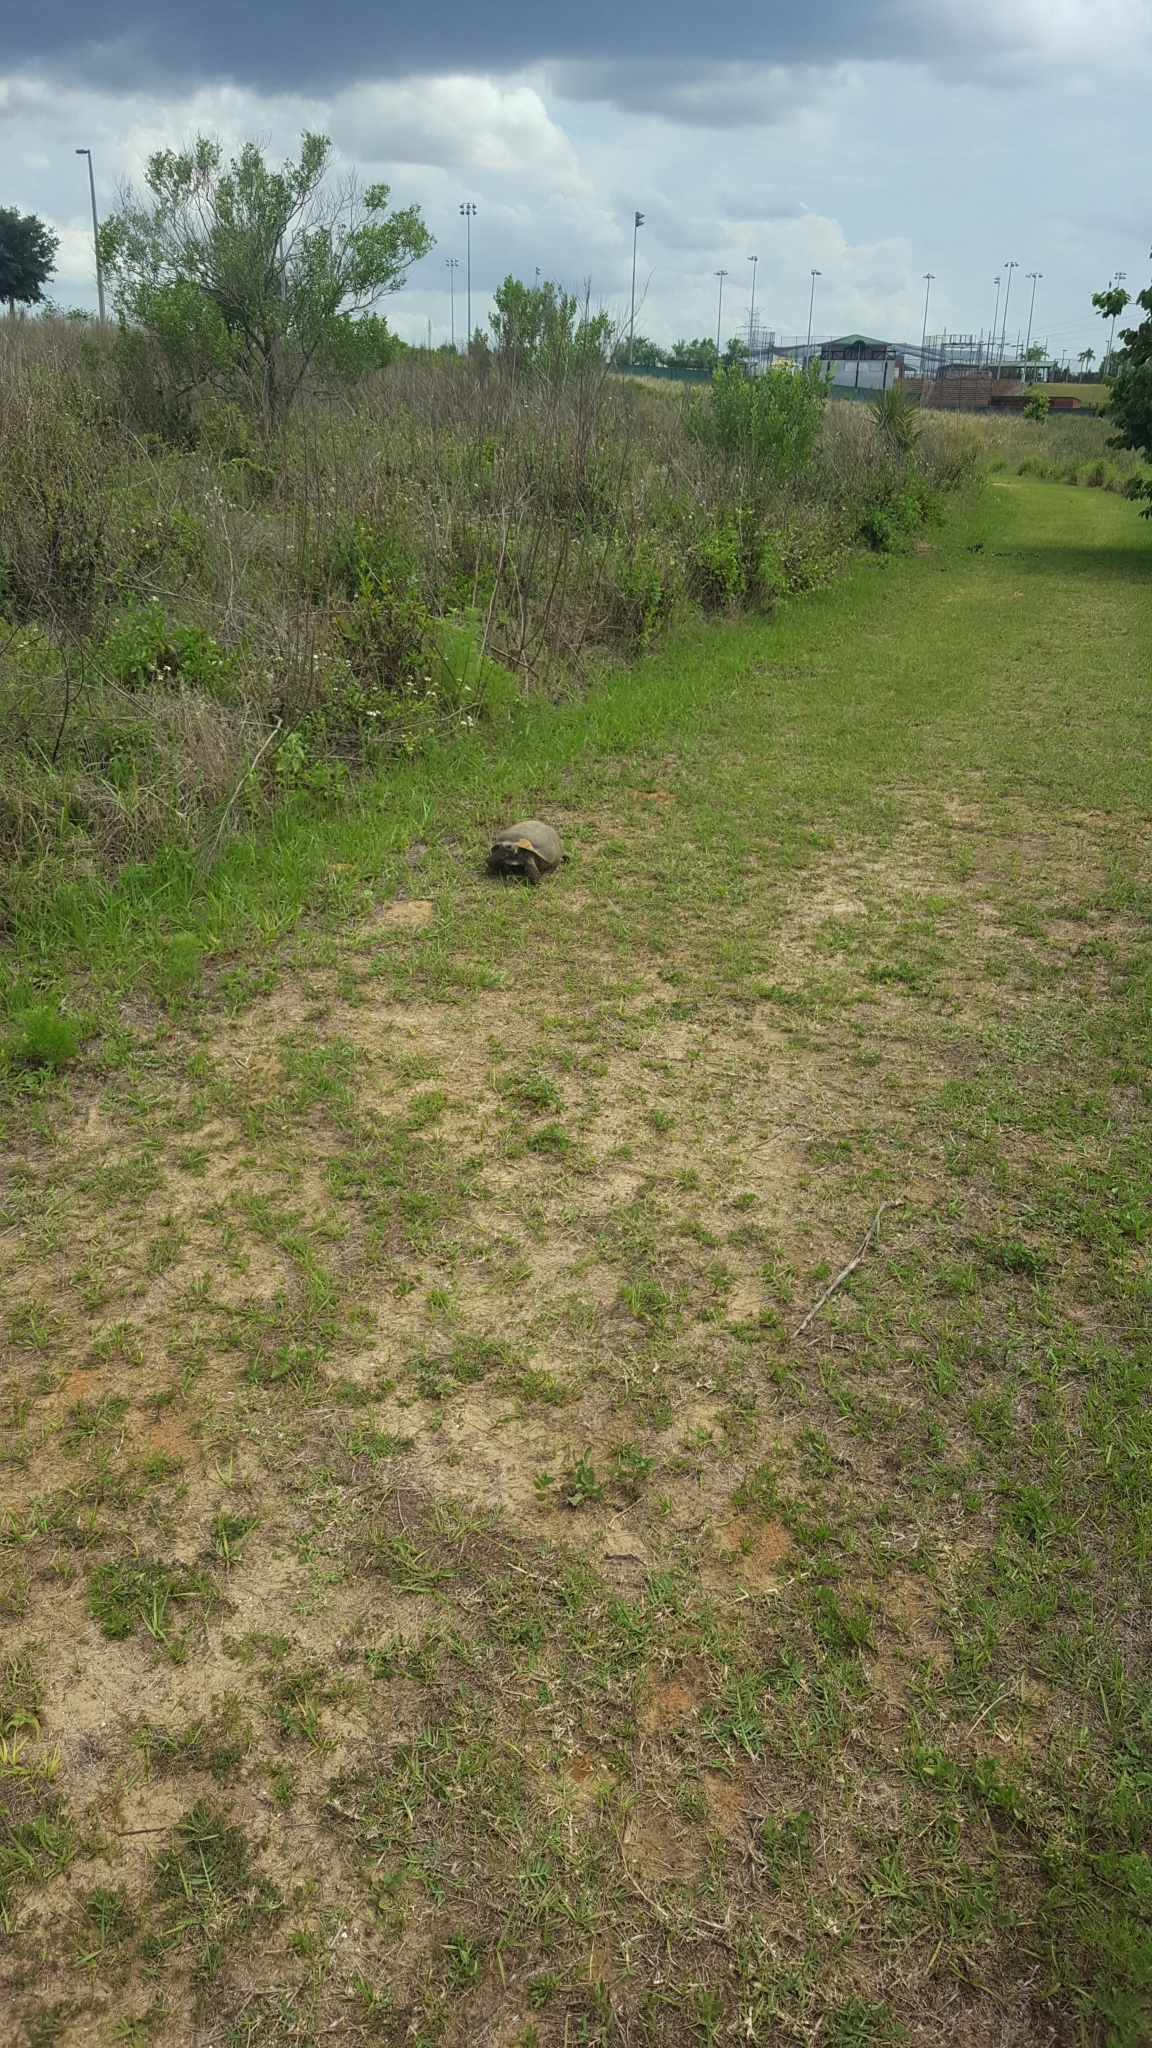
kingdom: Animalia
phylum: Chordata
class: Testudines
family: Testudinidae
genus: Gopherus
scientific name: Gopherus polyphemus
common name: Florida gopher tortoise
